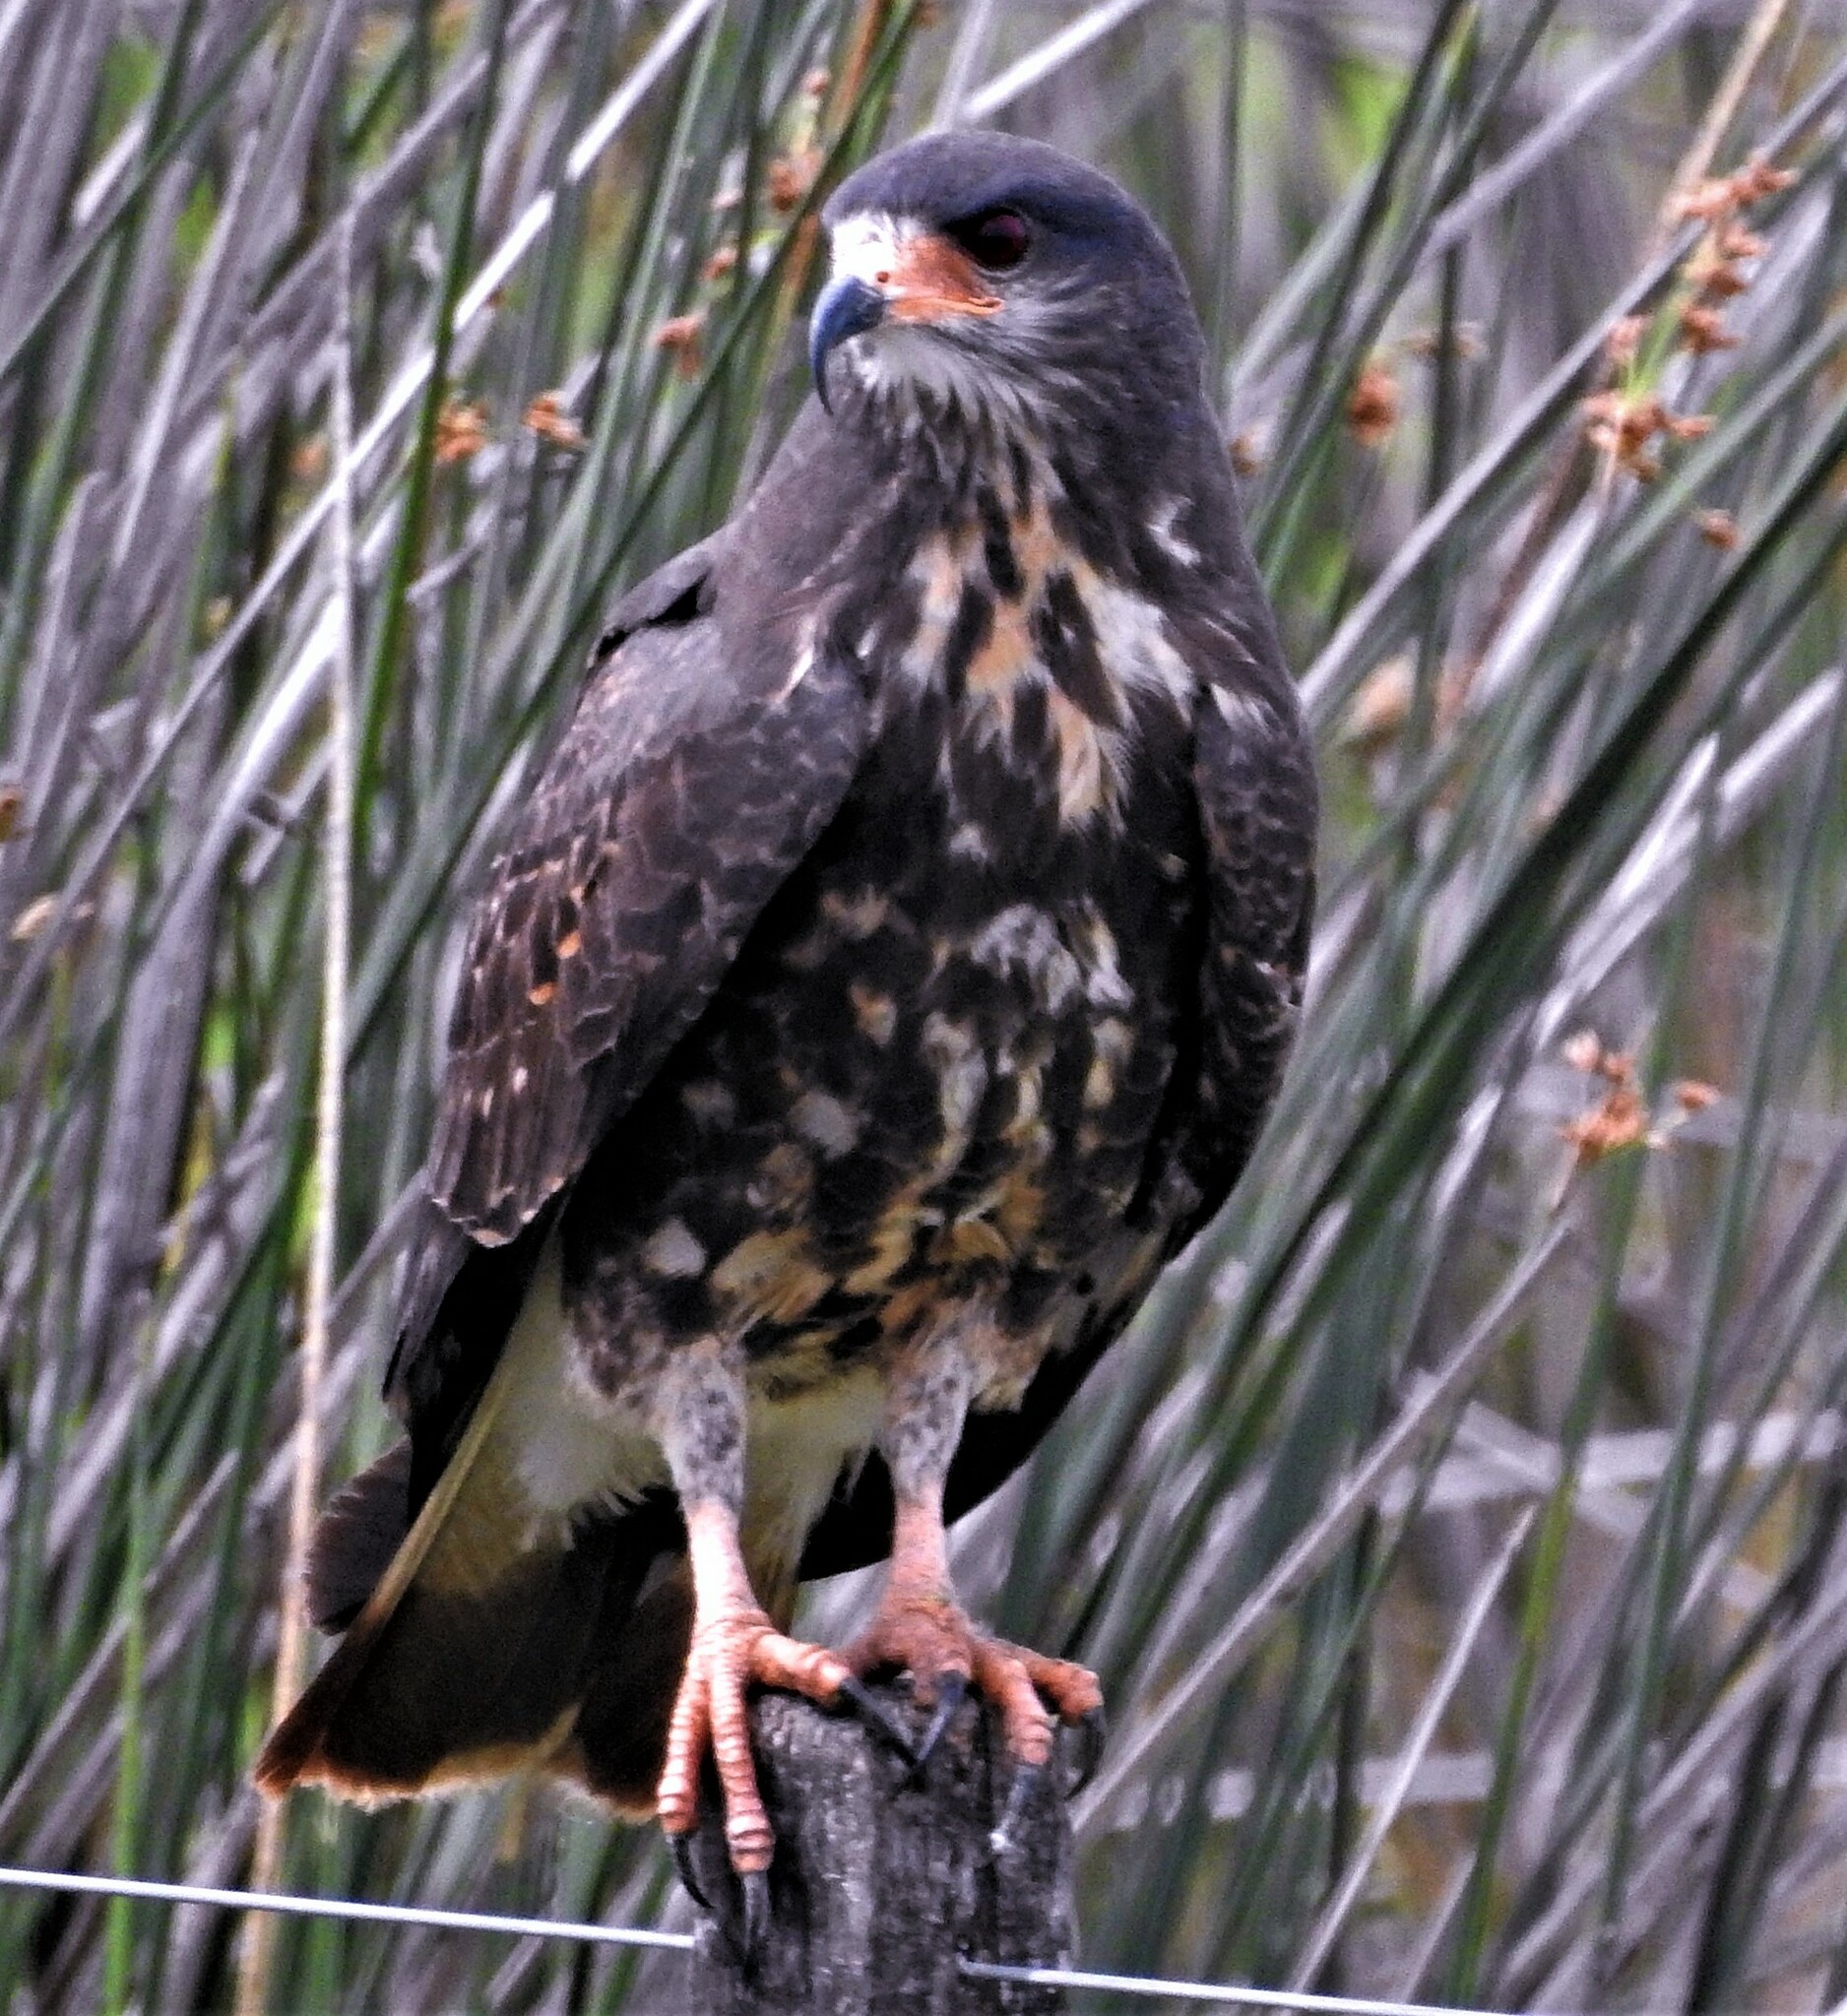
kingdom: Animalia
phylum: Chordata
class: Aves
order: Accipitriformes
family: Accipitridae
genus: Rostrhamus
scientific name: Rostrhamus sociabilis
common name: Snail kite
